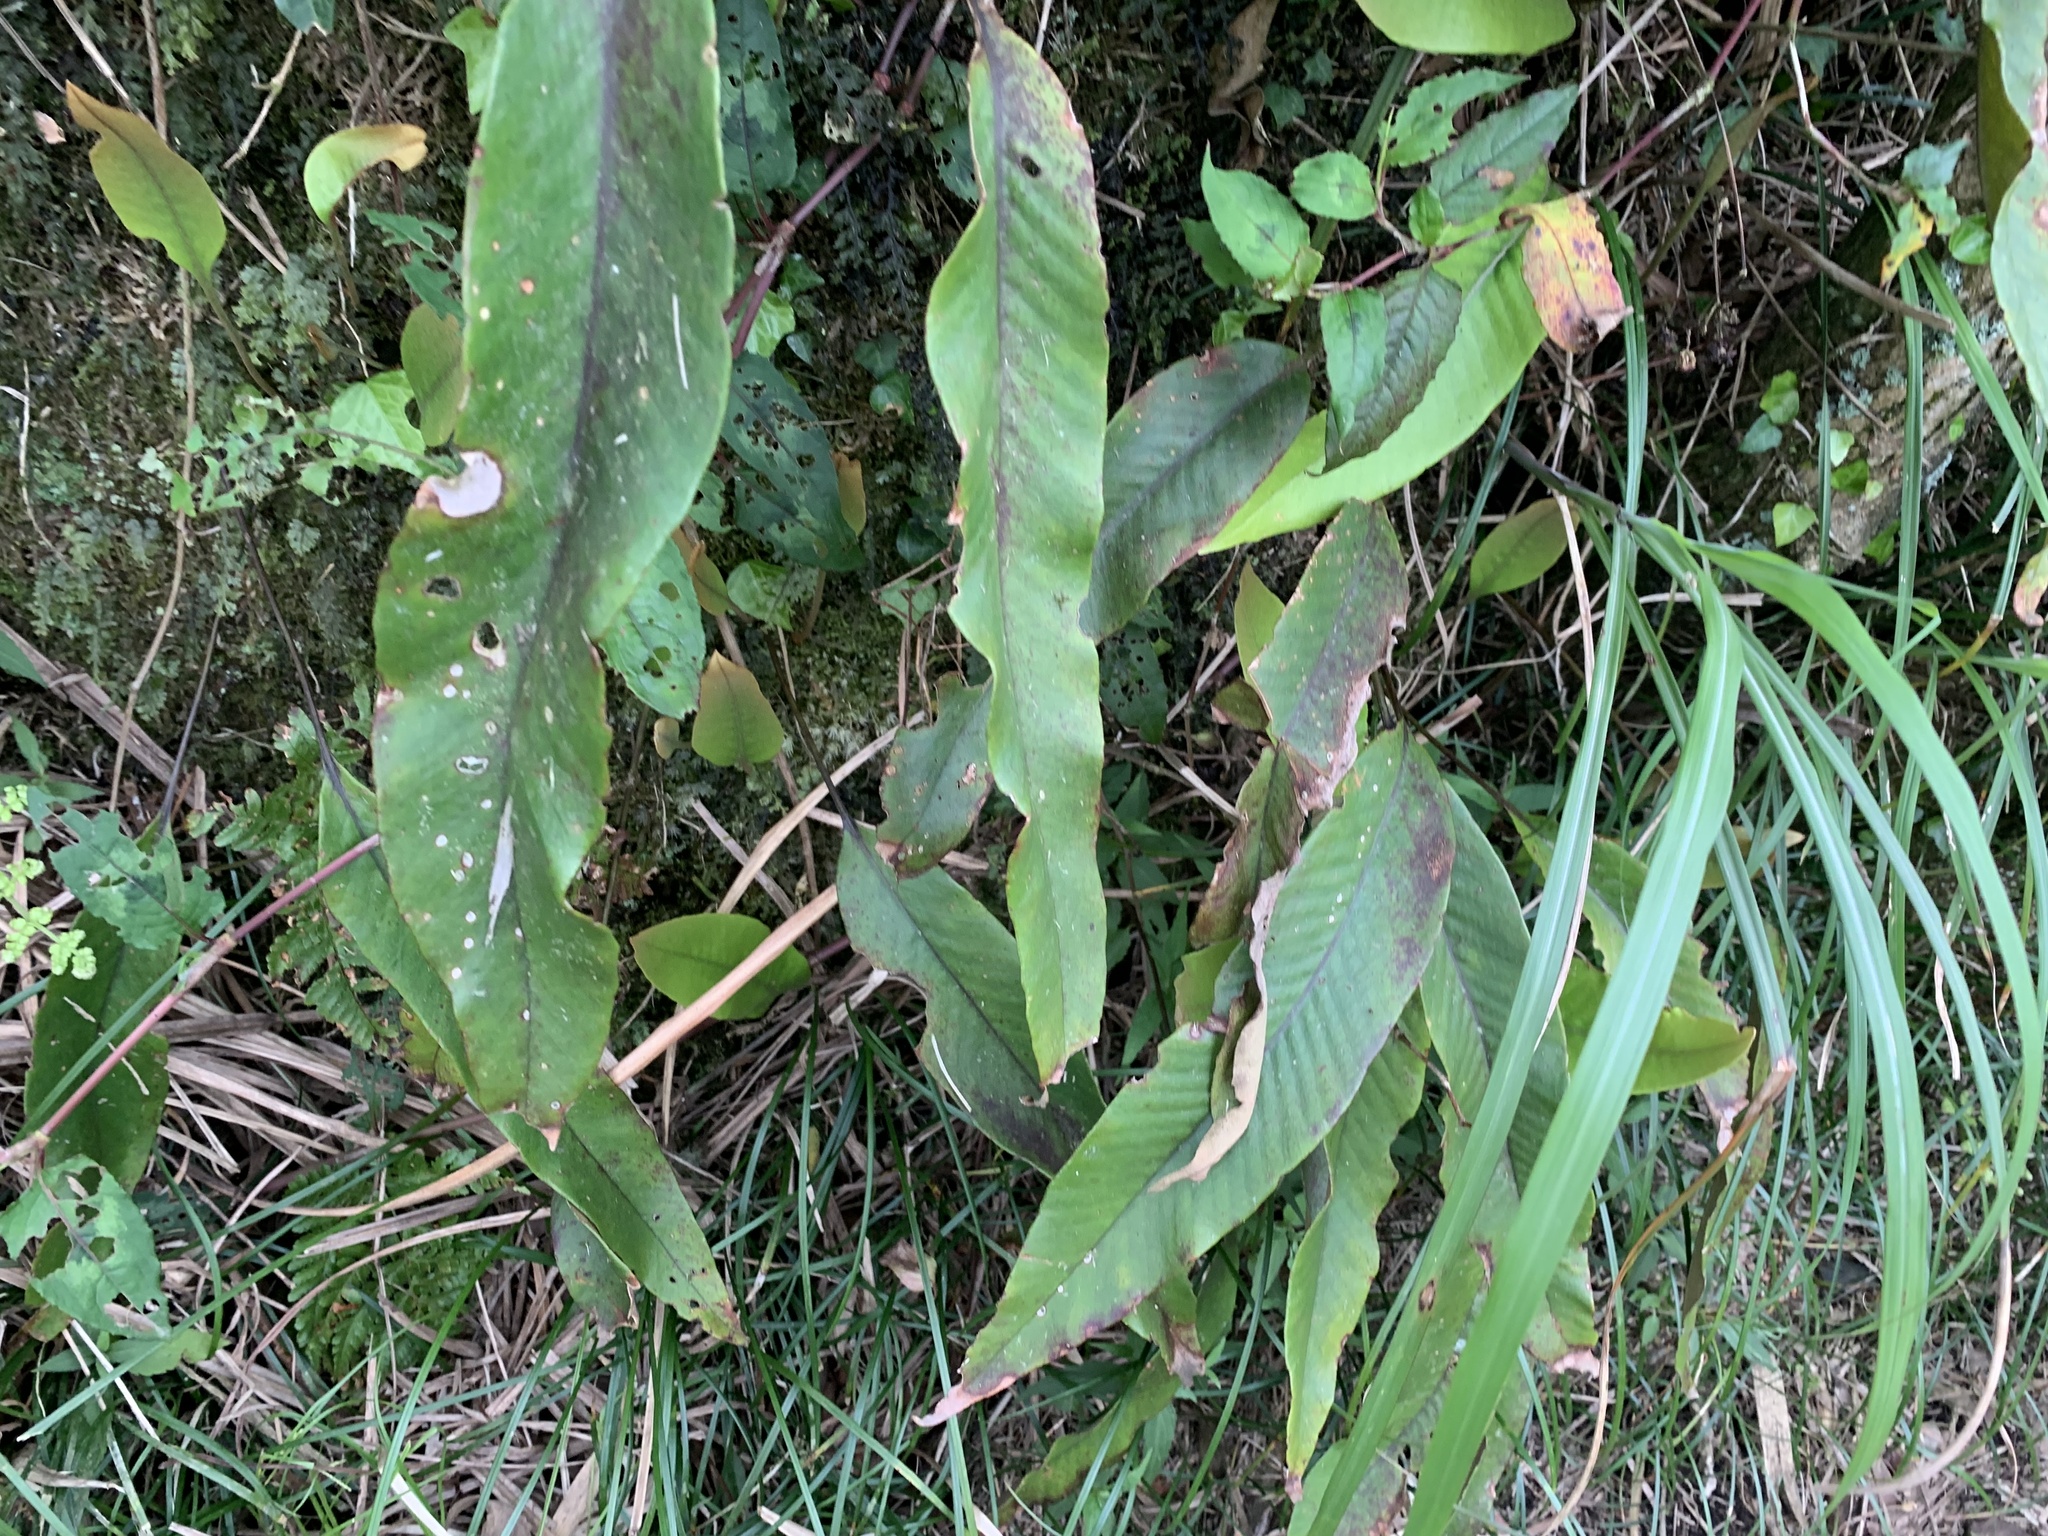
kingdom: Plantae
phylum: Tracheophyta
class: Polypodiopsida
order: Polypodiales
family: Polypodiaceae
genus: Pyrrosia
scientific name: Pyrrosia lingua
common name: Felt fern
